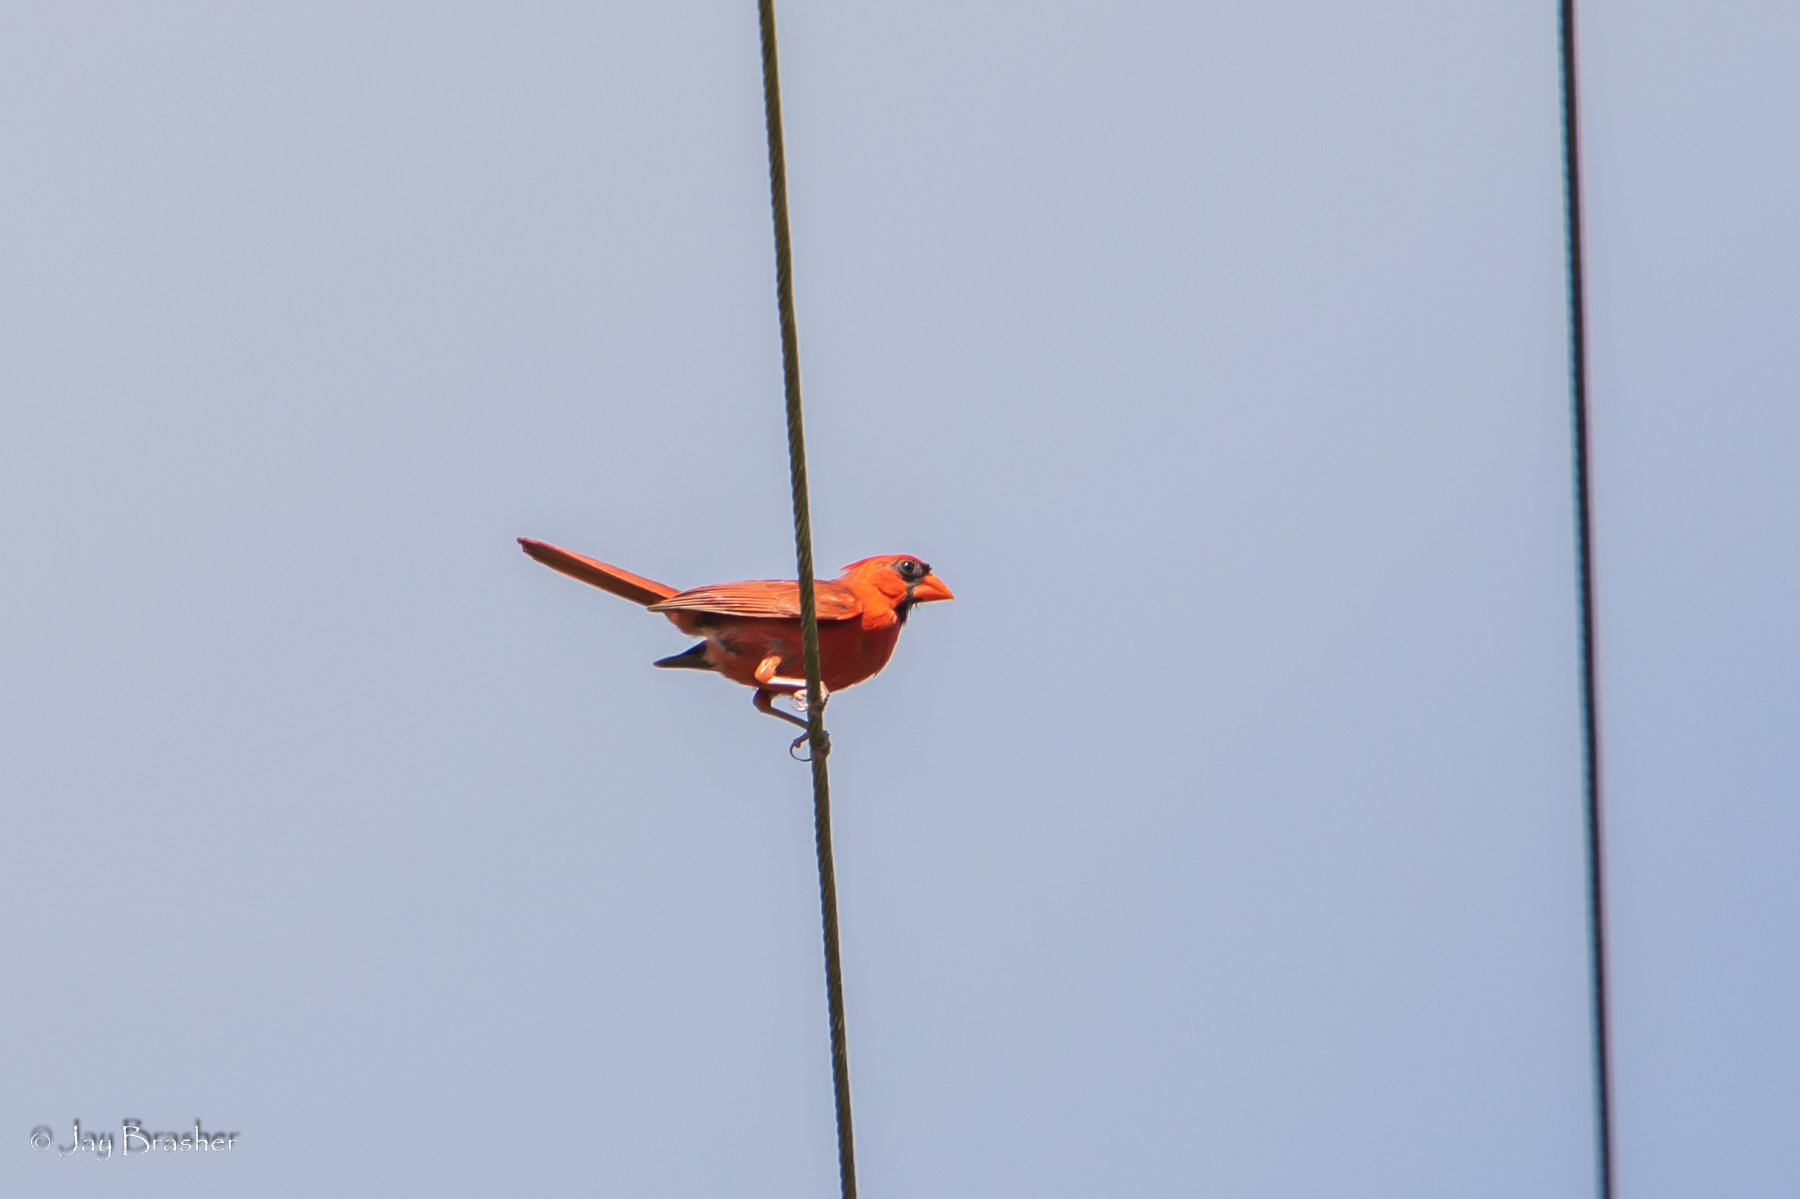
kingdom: Animalia
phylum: Chordata
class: Aves
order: Passeriformes
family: Cardinalidae
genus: Cardinalis
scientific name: Cardinalis cardinalis
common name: Northern cardinal
